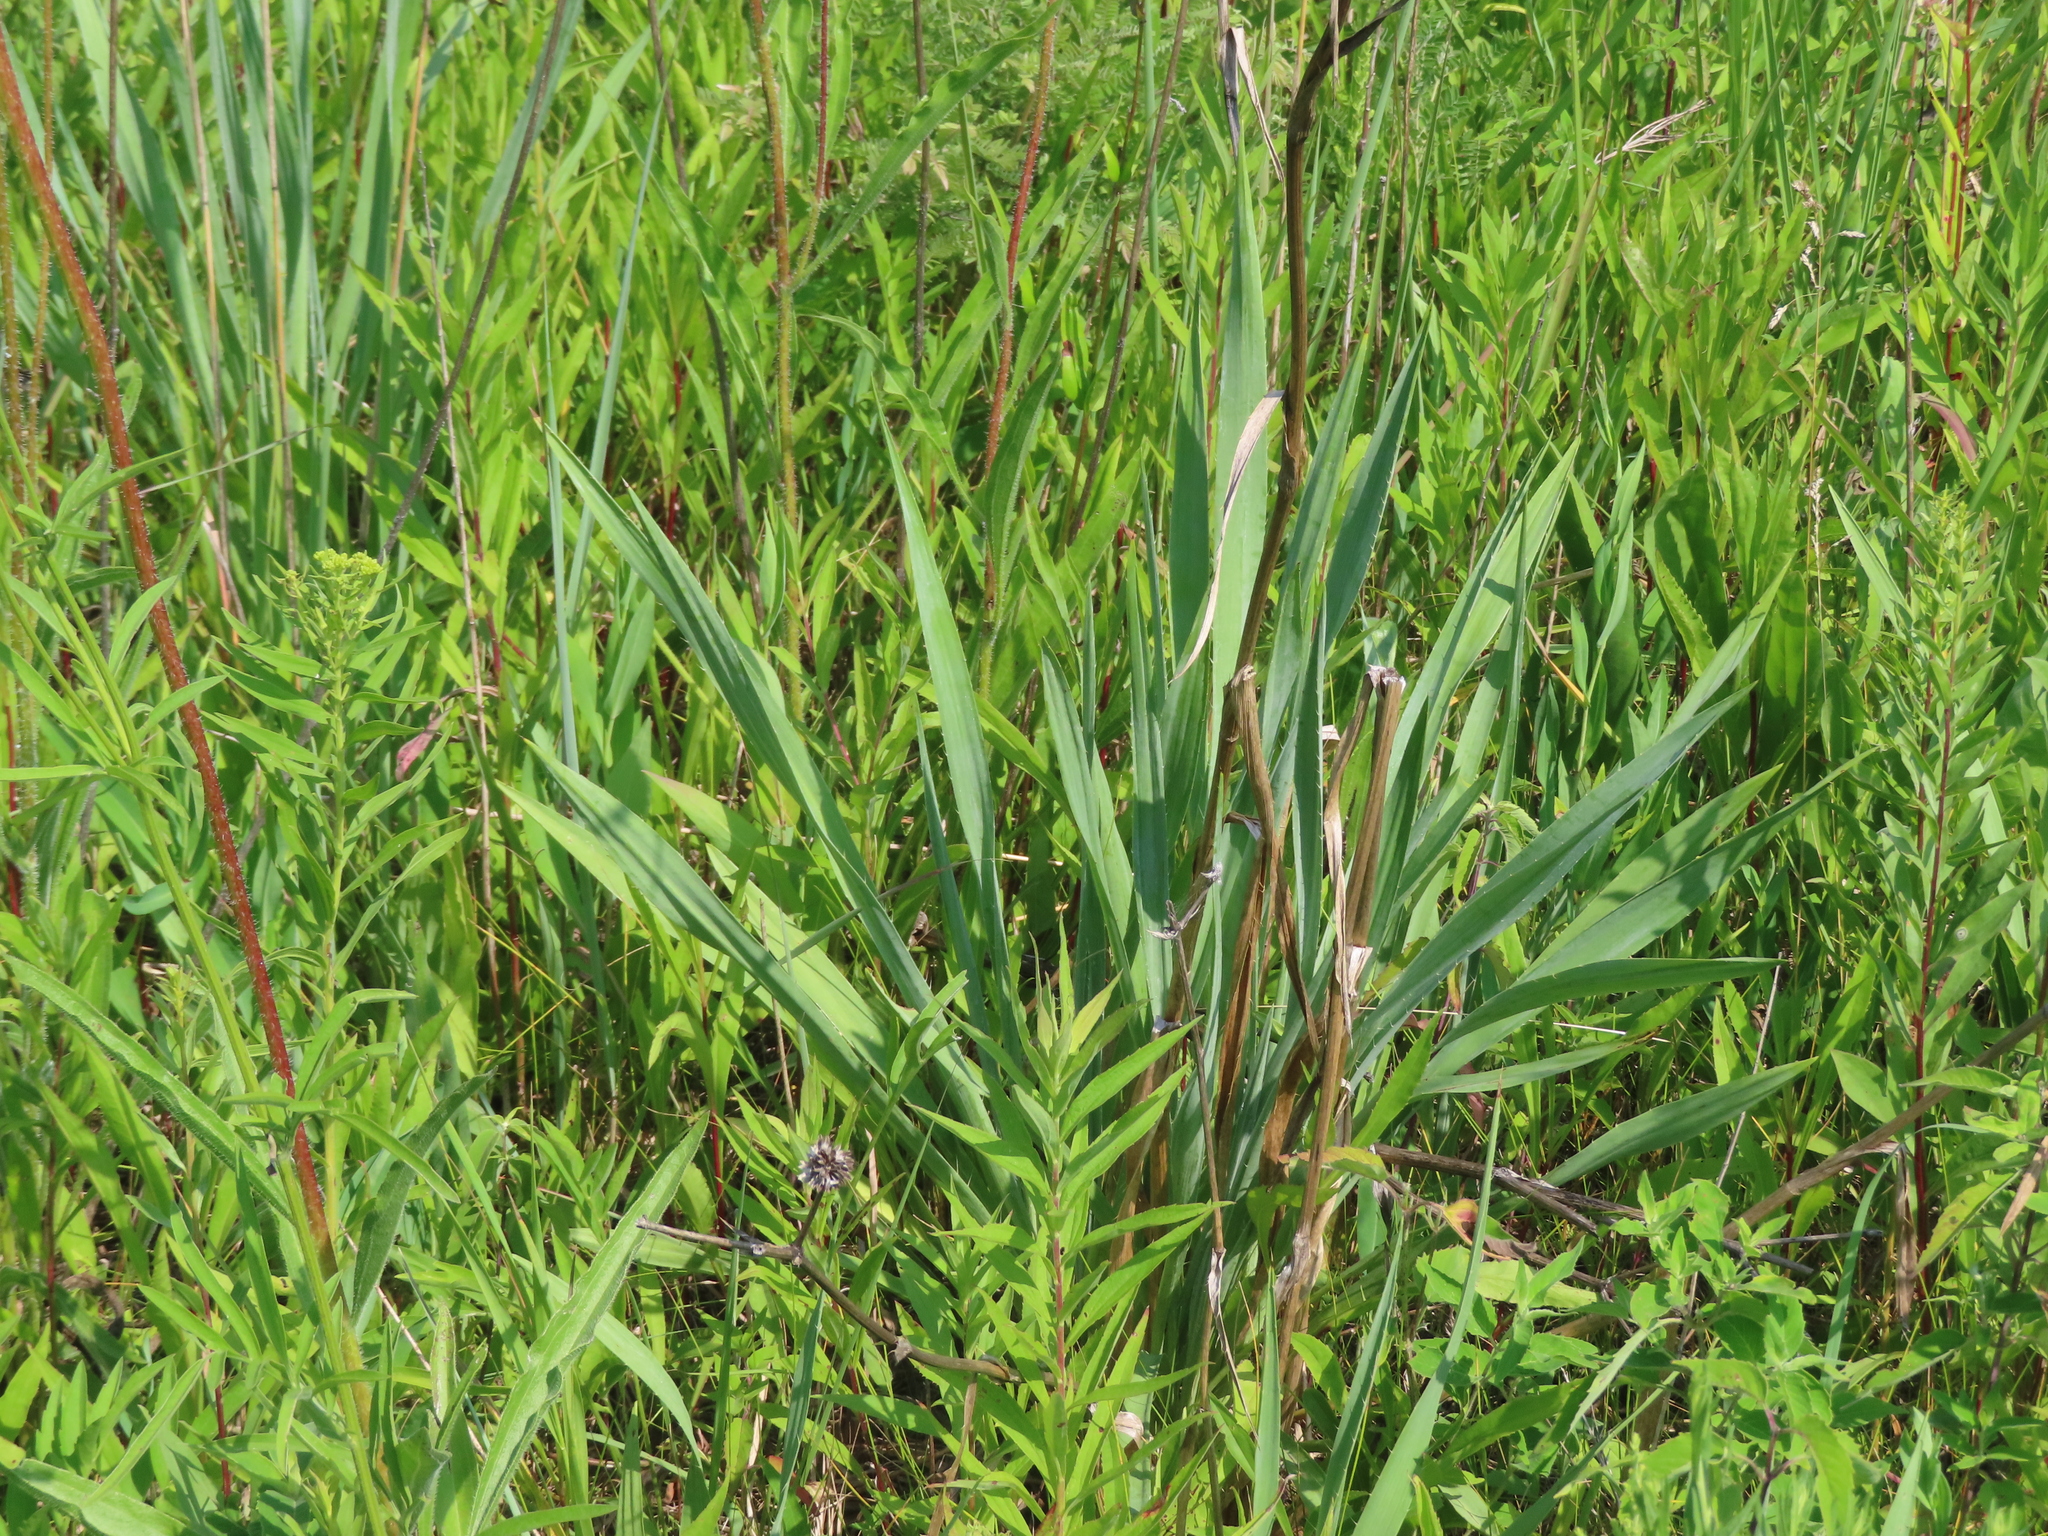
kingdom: Plantae
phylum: Tracheophyta
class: Magnoliopsida
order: Apiales
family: Apiaceae
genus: Eryngium
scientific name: Eryngium yuccifolium
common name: Button eryngo
